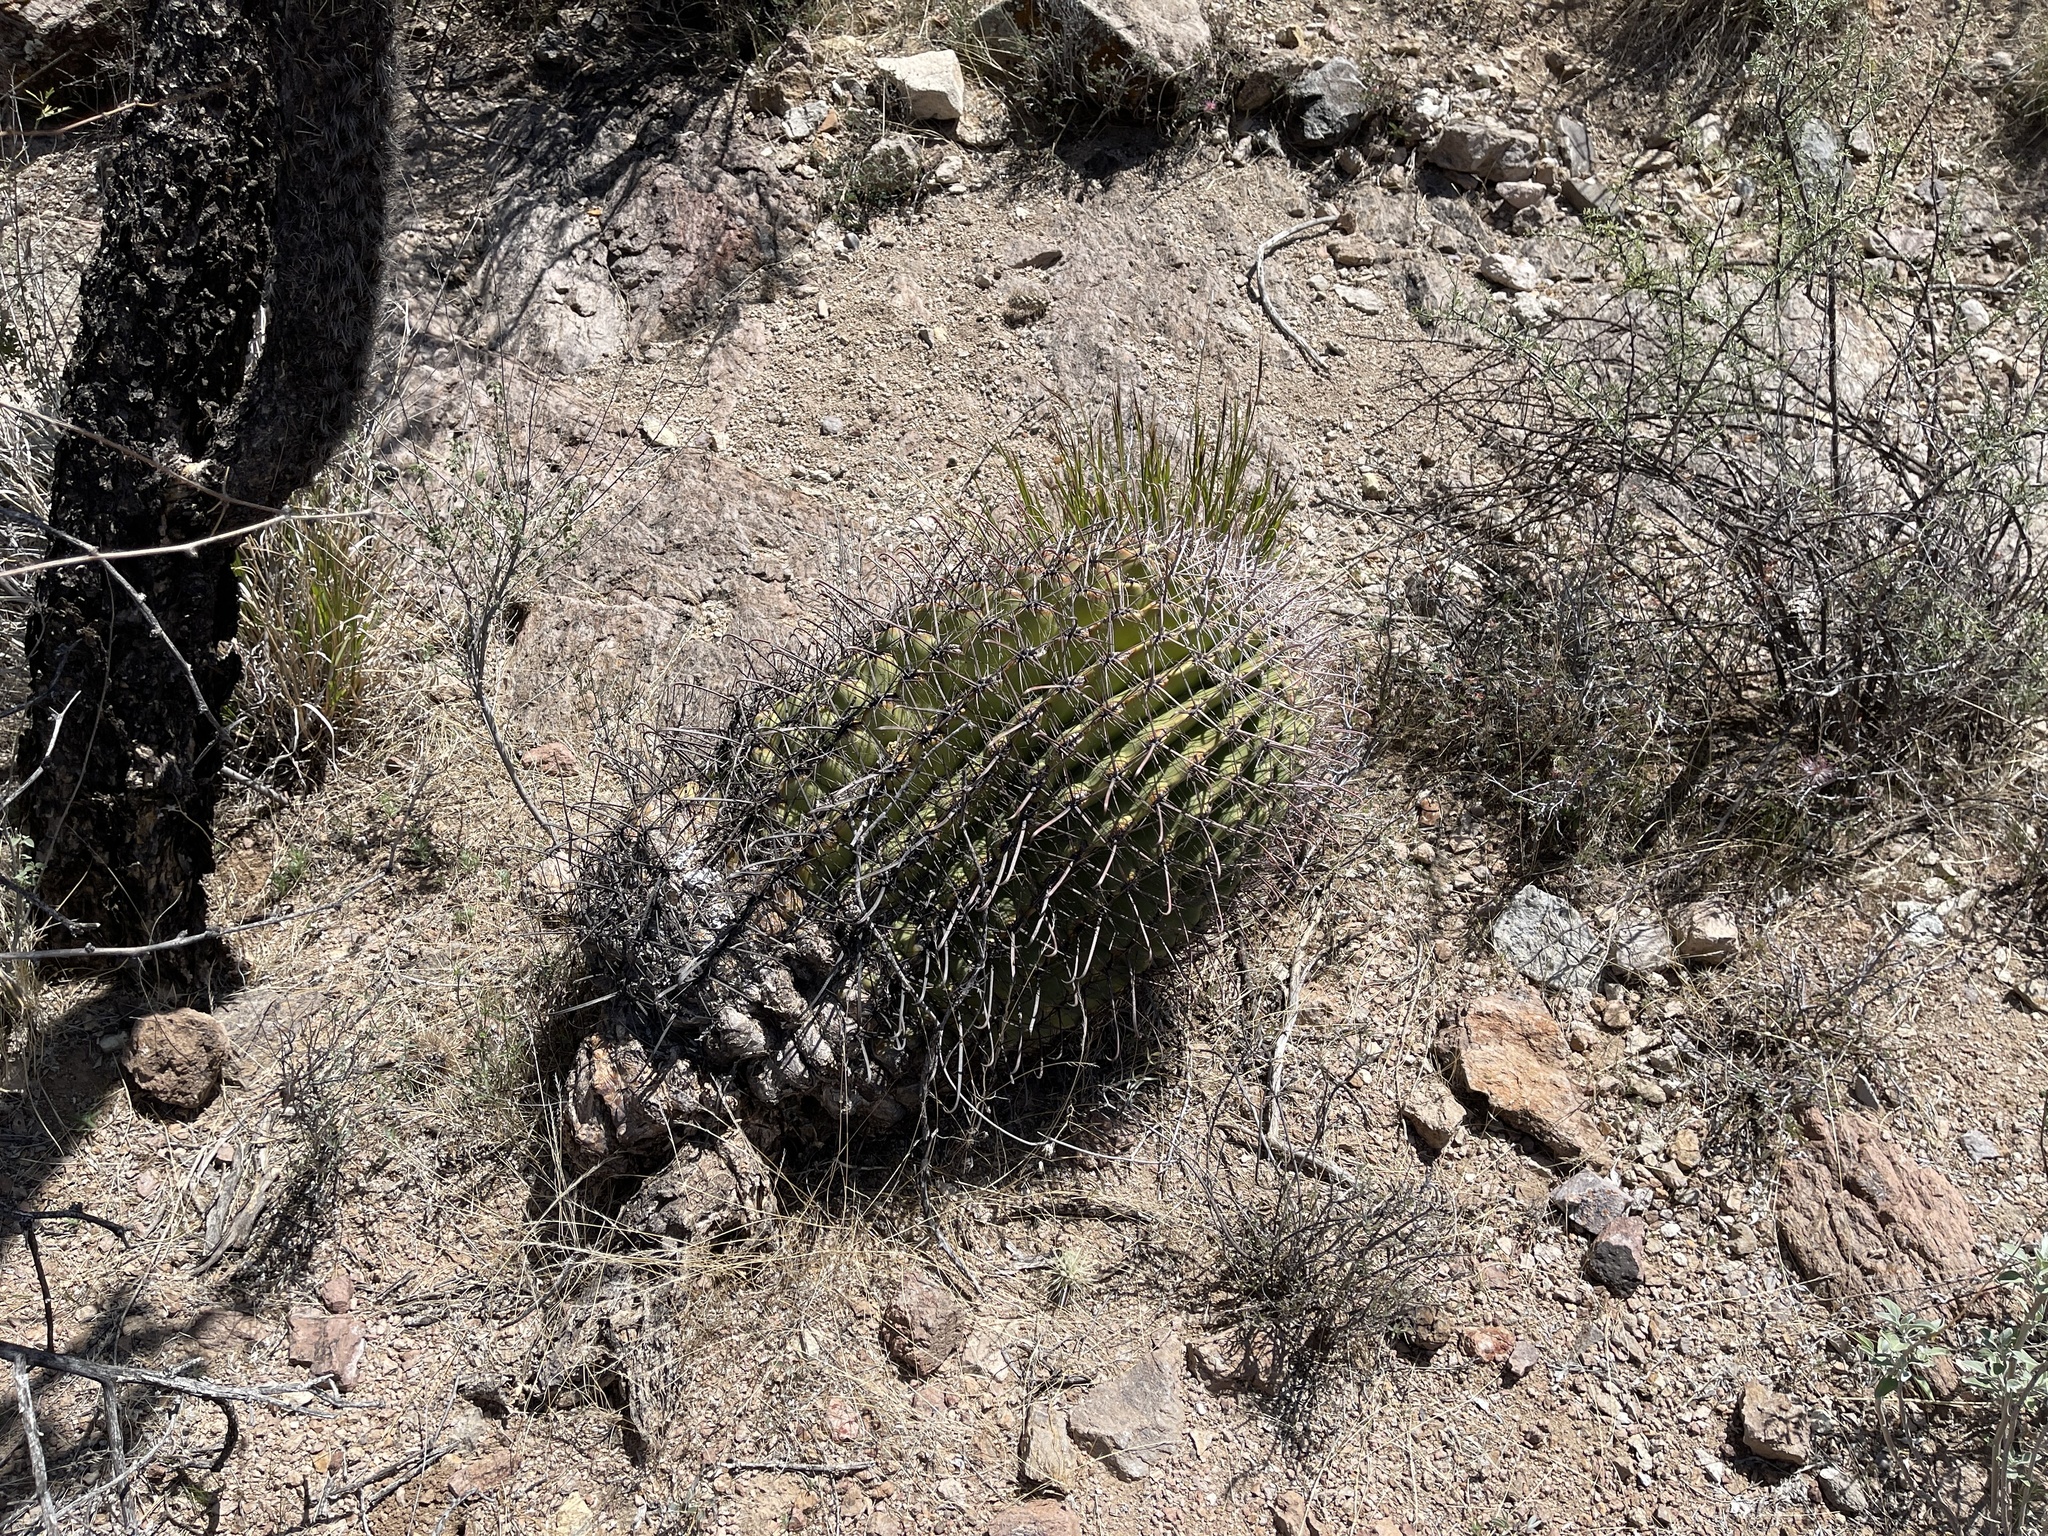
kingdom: Plantae
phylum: Tracheophyta
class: Magnoliopsida
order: Caryophyllales
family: Cactaceae
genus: Ferocactus
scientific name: Ferocactus wislizeni
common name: Candy barrel cactus
